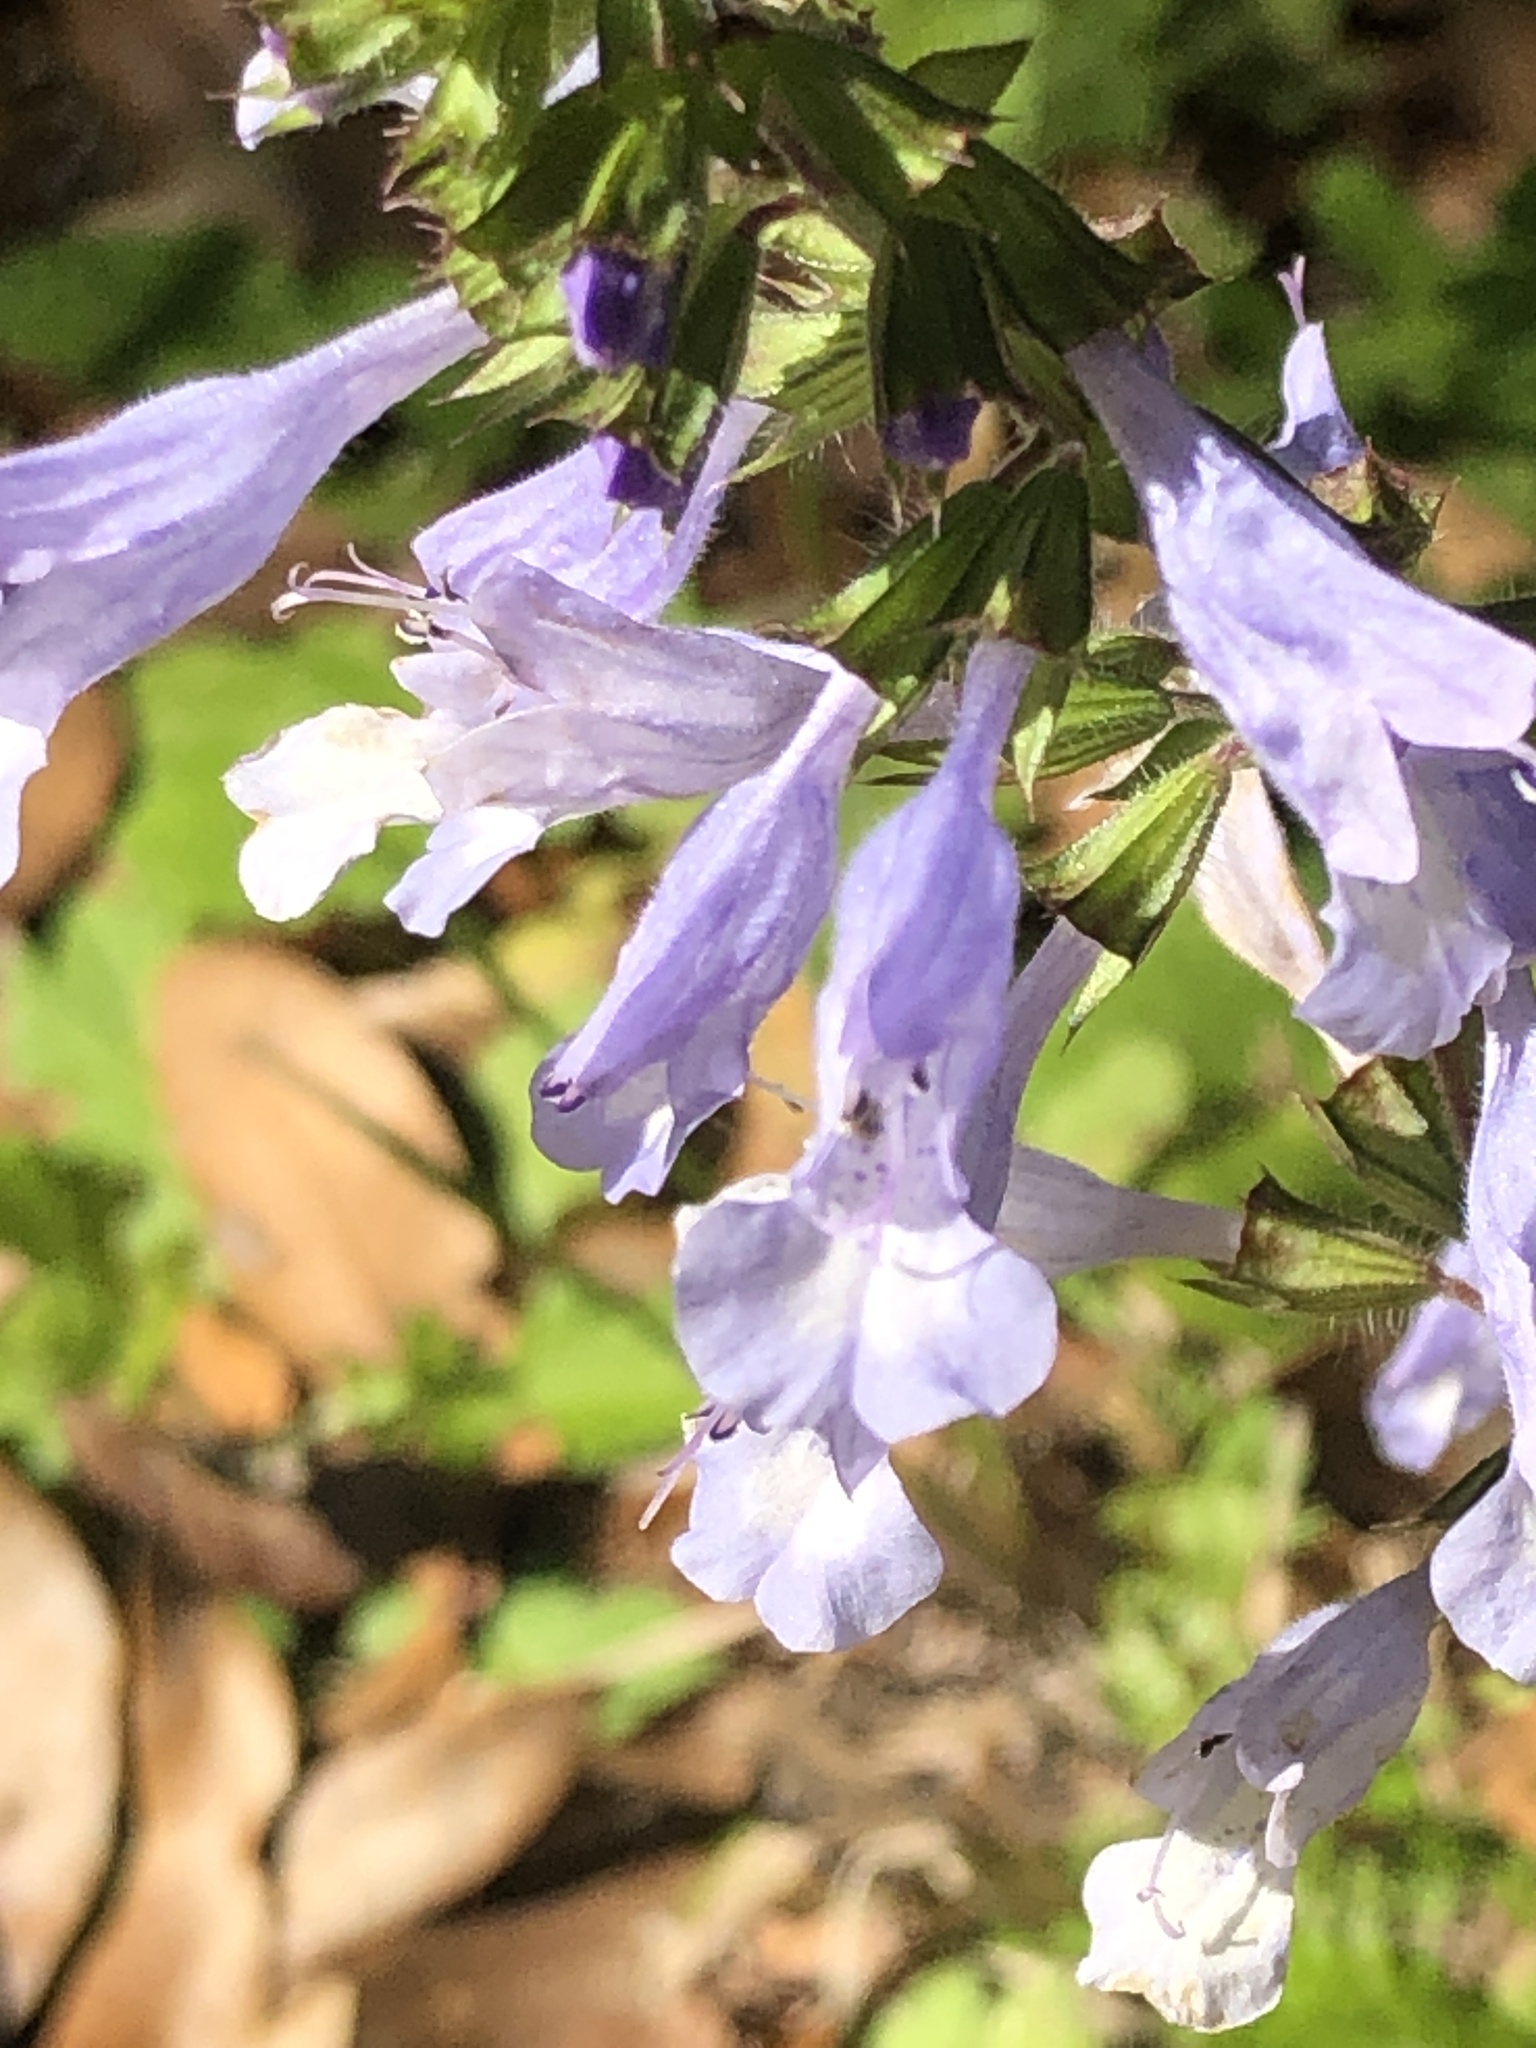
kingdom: Plantae
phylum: Tracheophyta
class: Magnoliopsida
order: Lamiales
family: Lamiaceae
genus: Salvia
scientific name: Salvia lyrata
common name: Cancerweed
